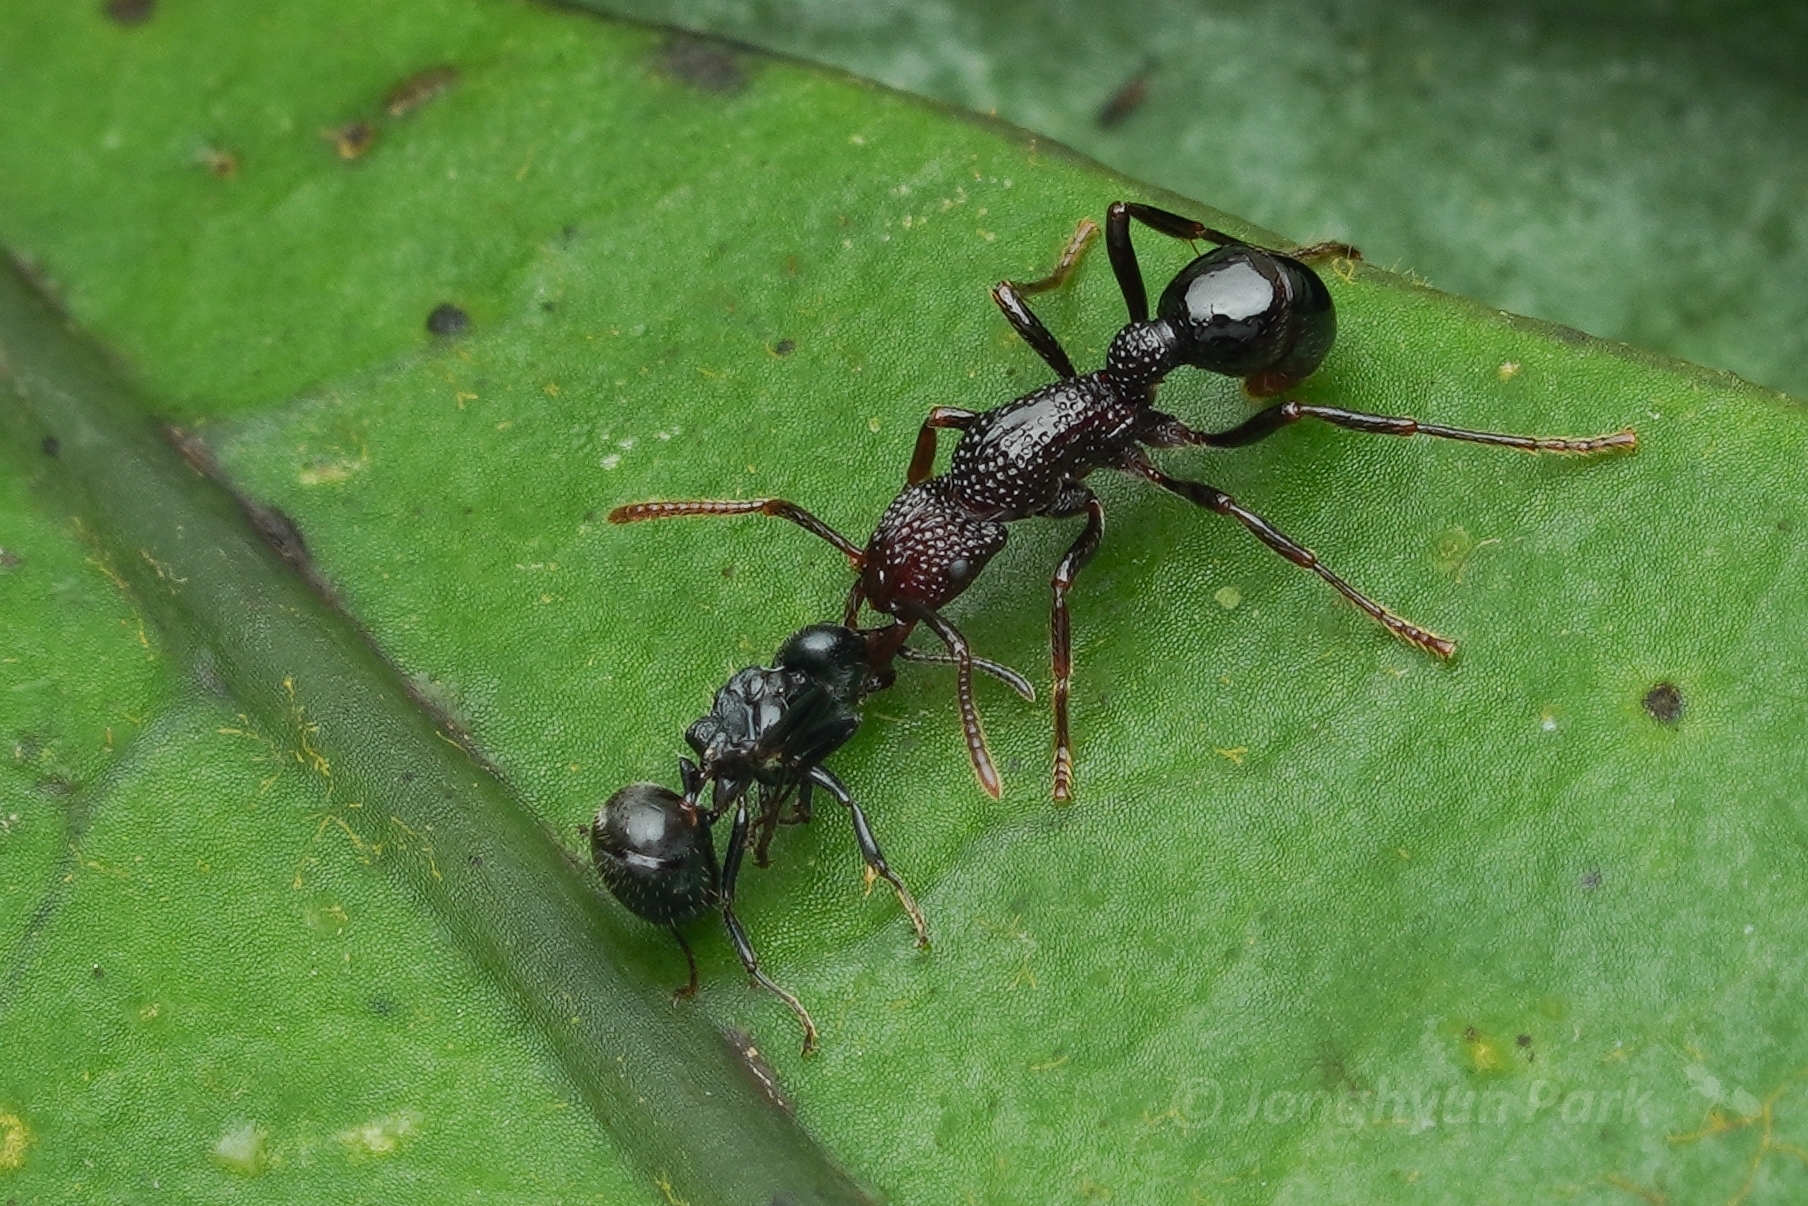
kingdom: Animalia
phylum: Arthropoda
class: Insecta
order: Hymenoptera
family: Formicidae
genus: Stictoponera
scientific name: Stictoponera
